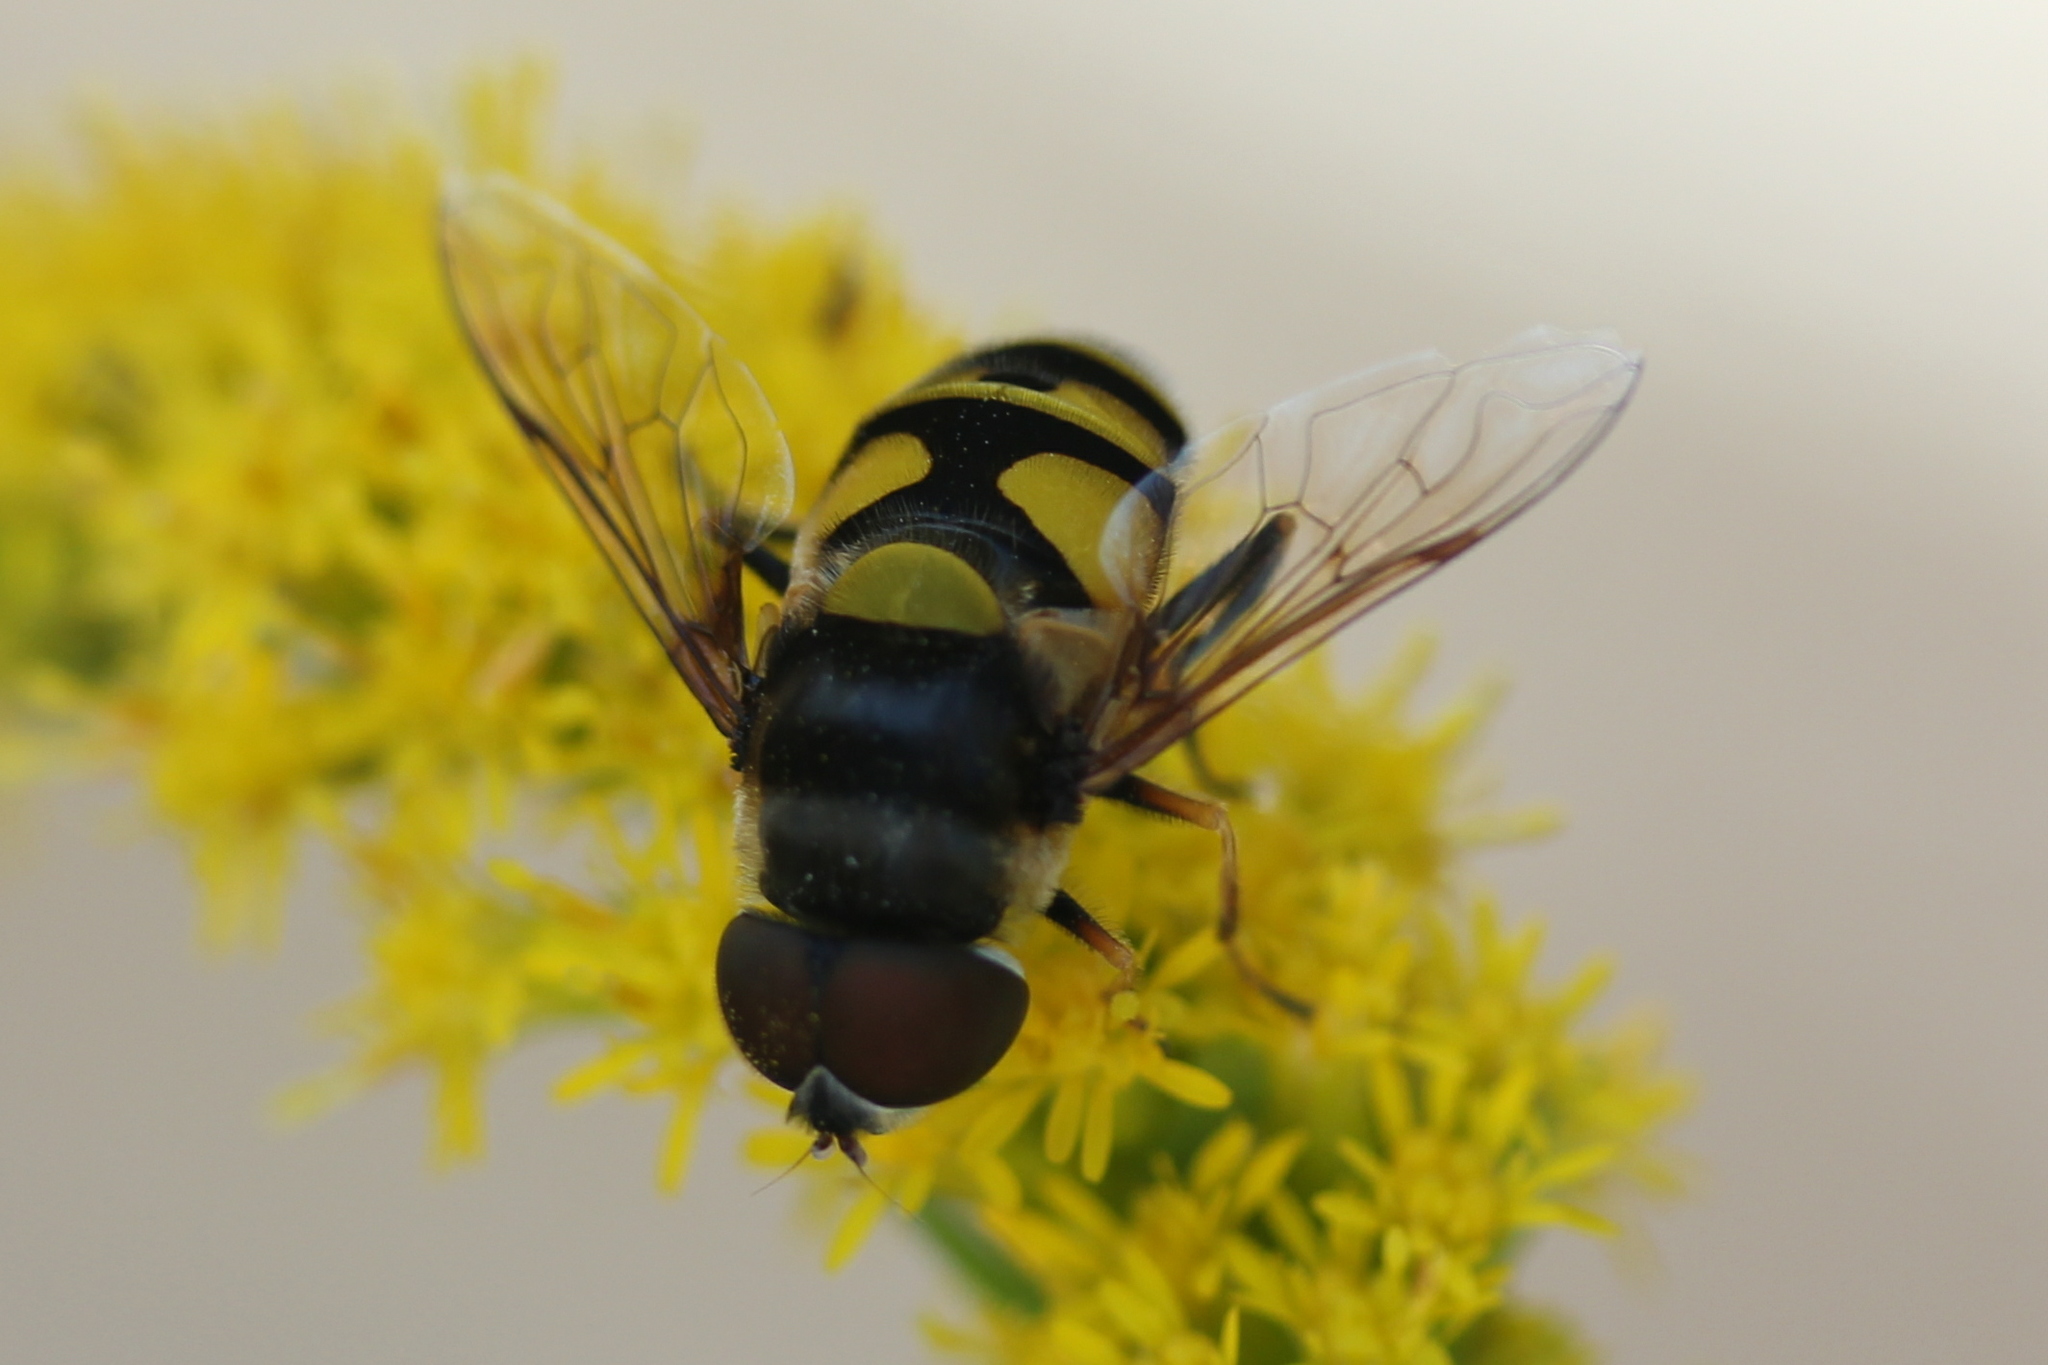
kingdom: Animalia
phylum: Arthropoda
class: Insecta
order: Diptera
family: Syrphidae
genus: Eristalis
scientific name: Eristalis transversa
